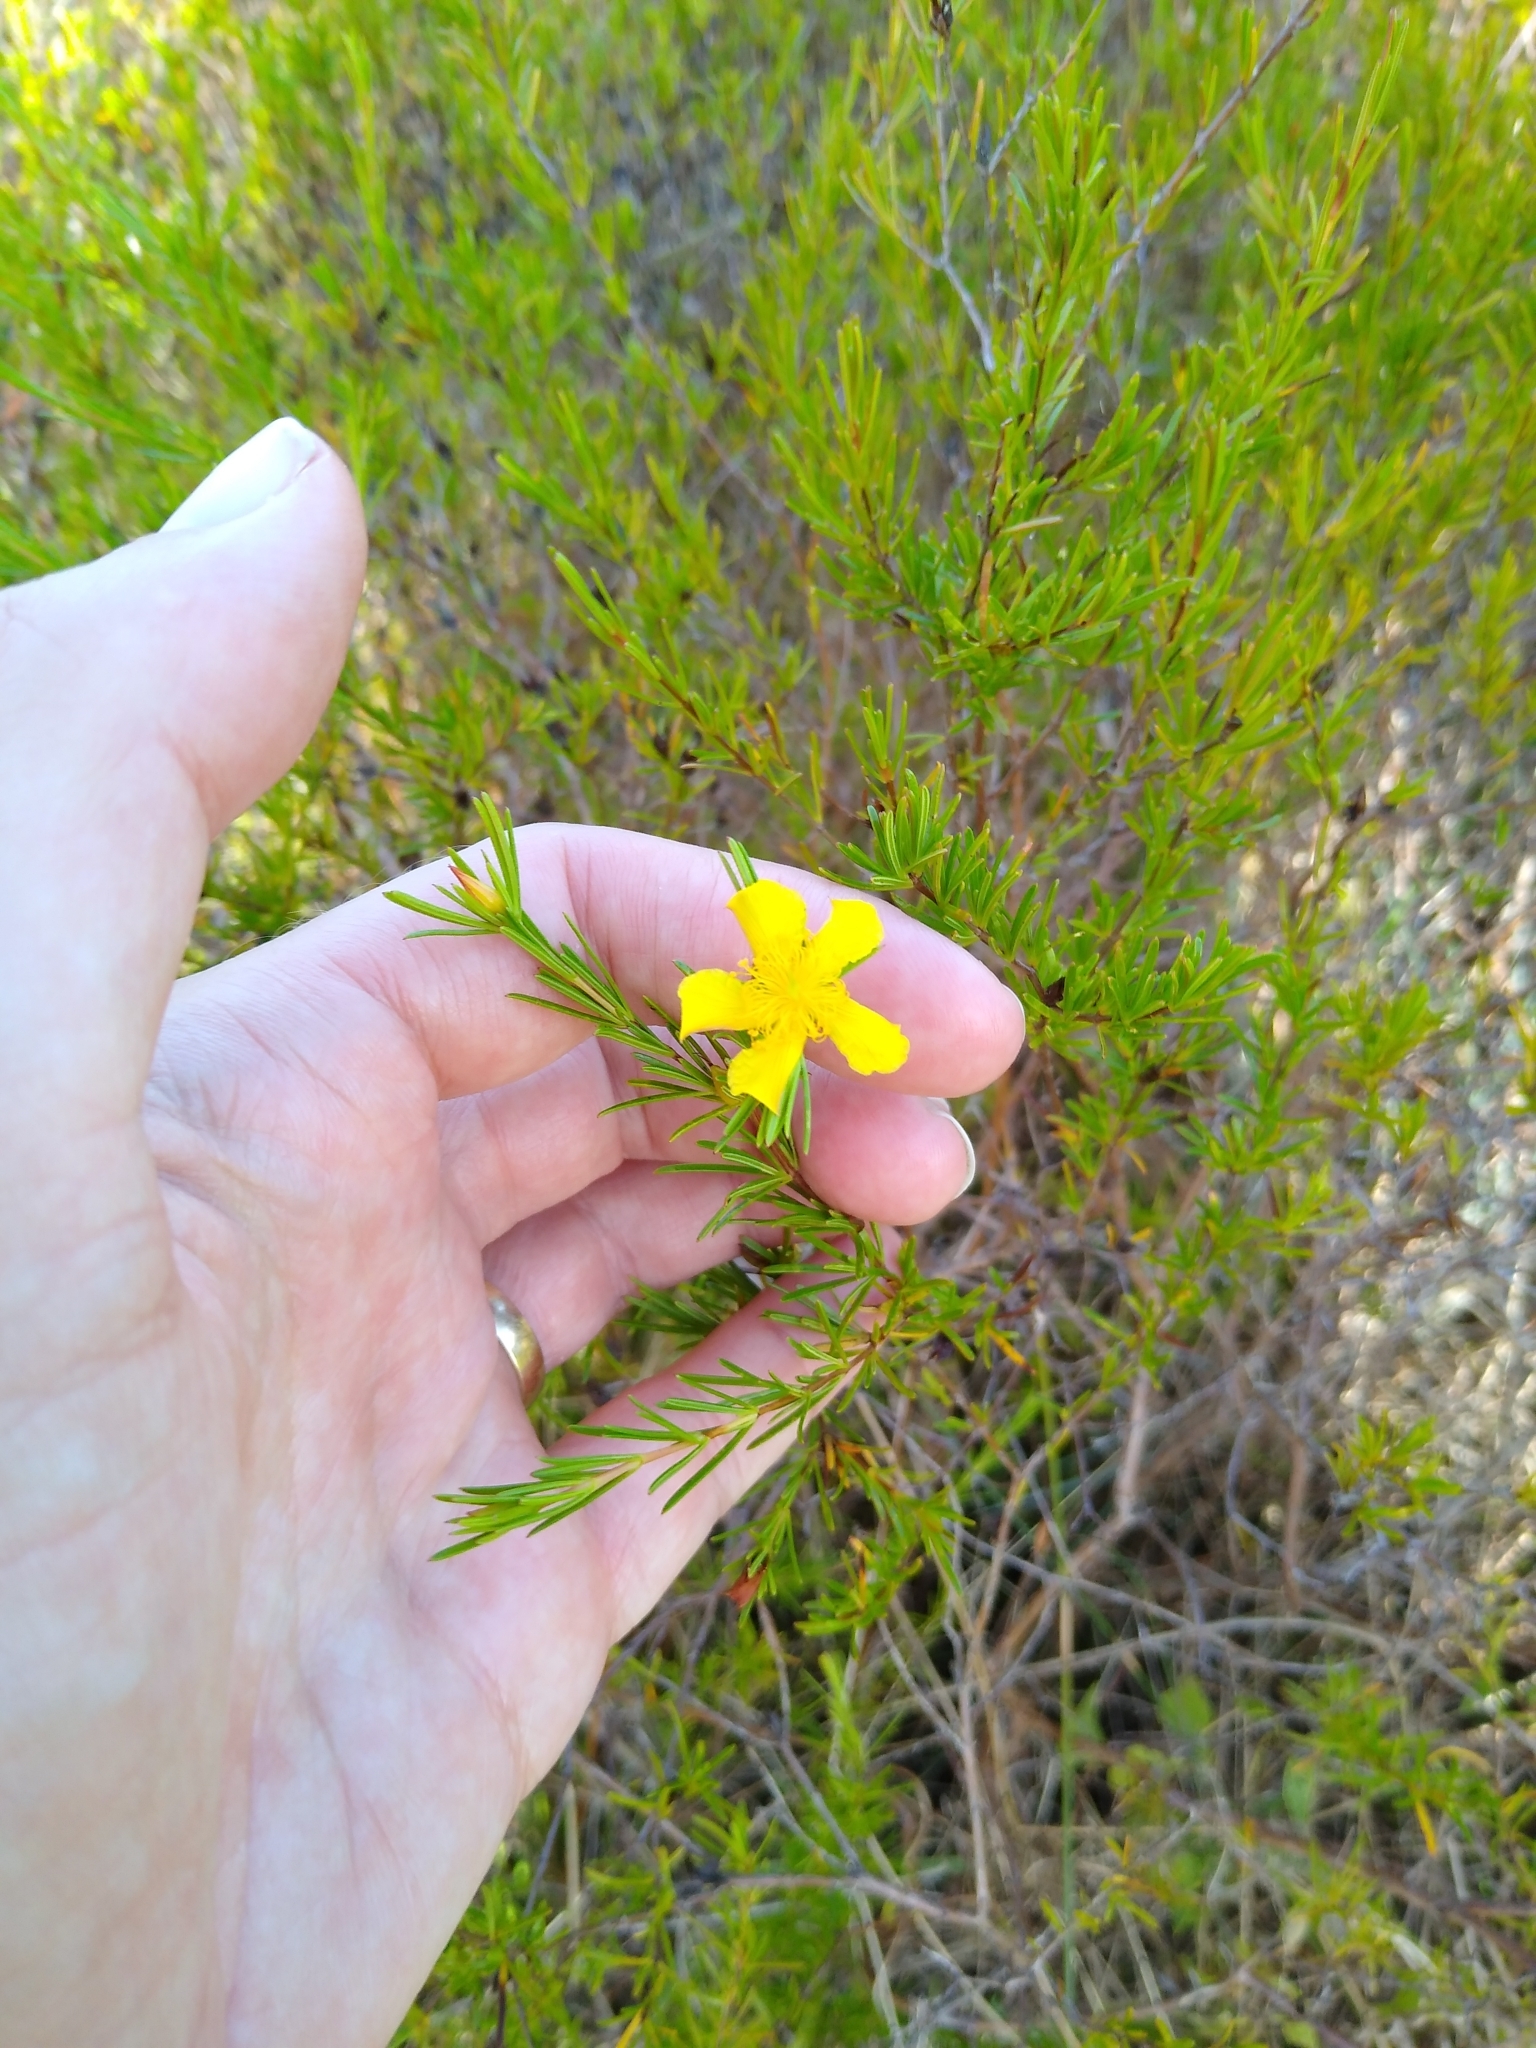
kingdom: Plantae
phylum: Tracheophyta
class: Magnoliopsida
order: Malpighiales
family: Hypericaceae
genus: Hypericum
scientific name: Hypericum fasciculatum
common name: Peelbark st. john's wort
